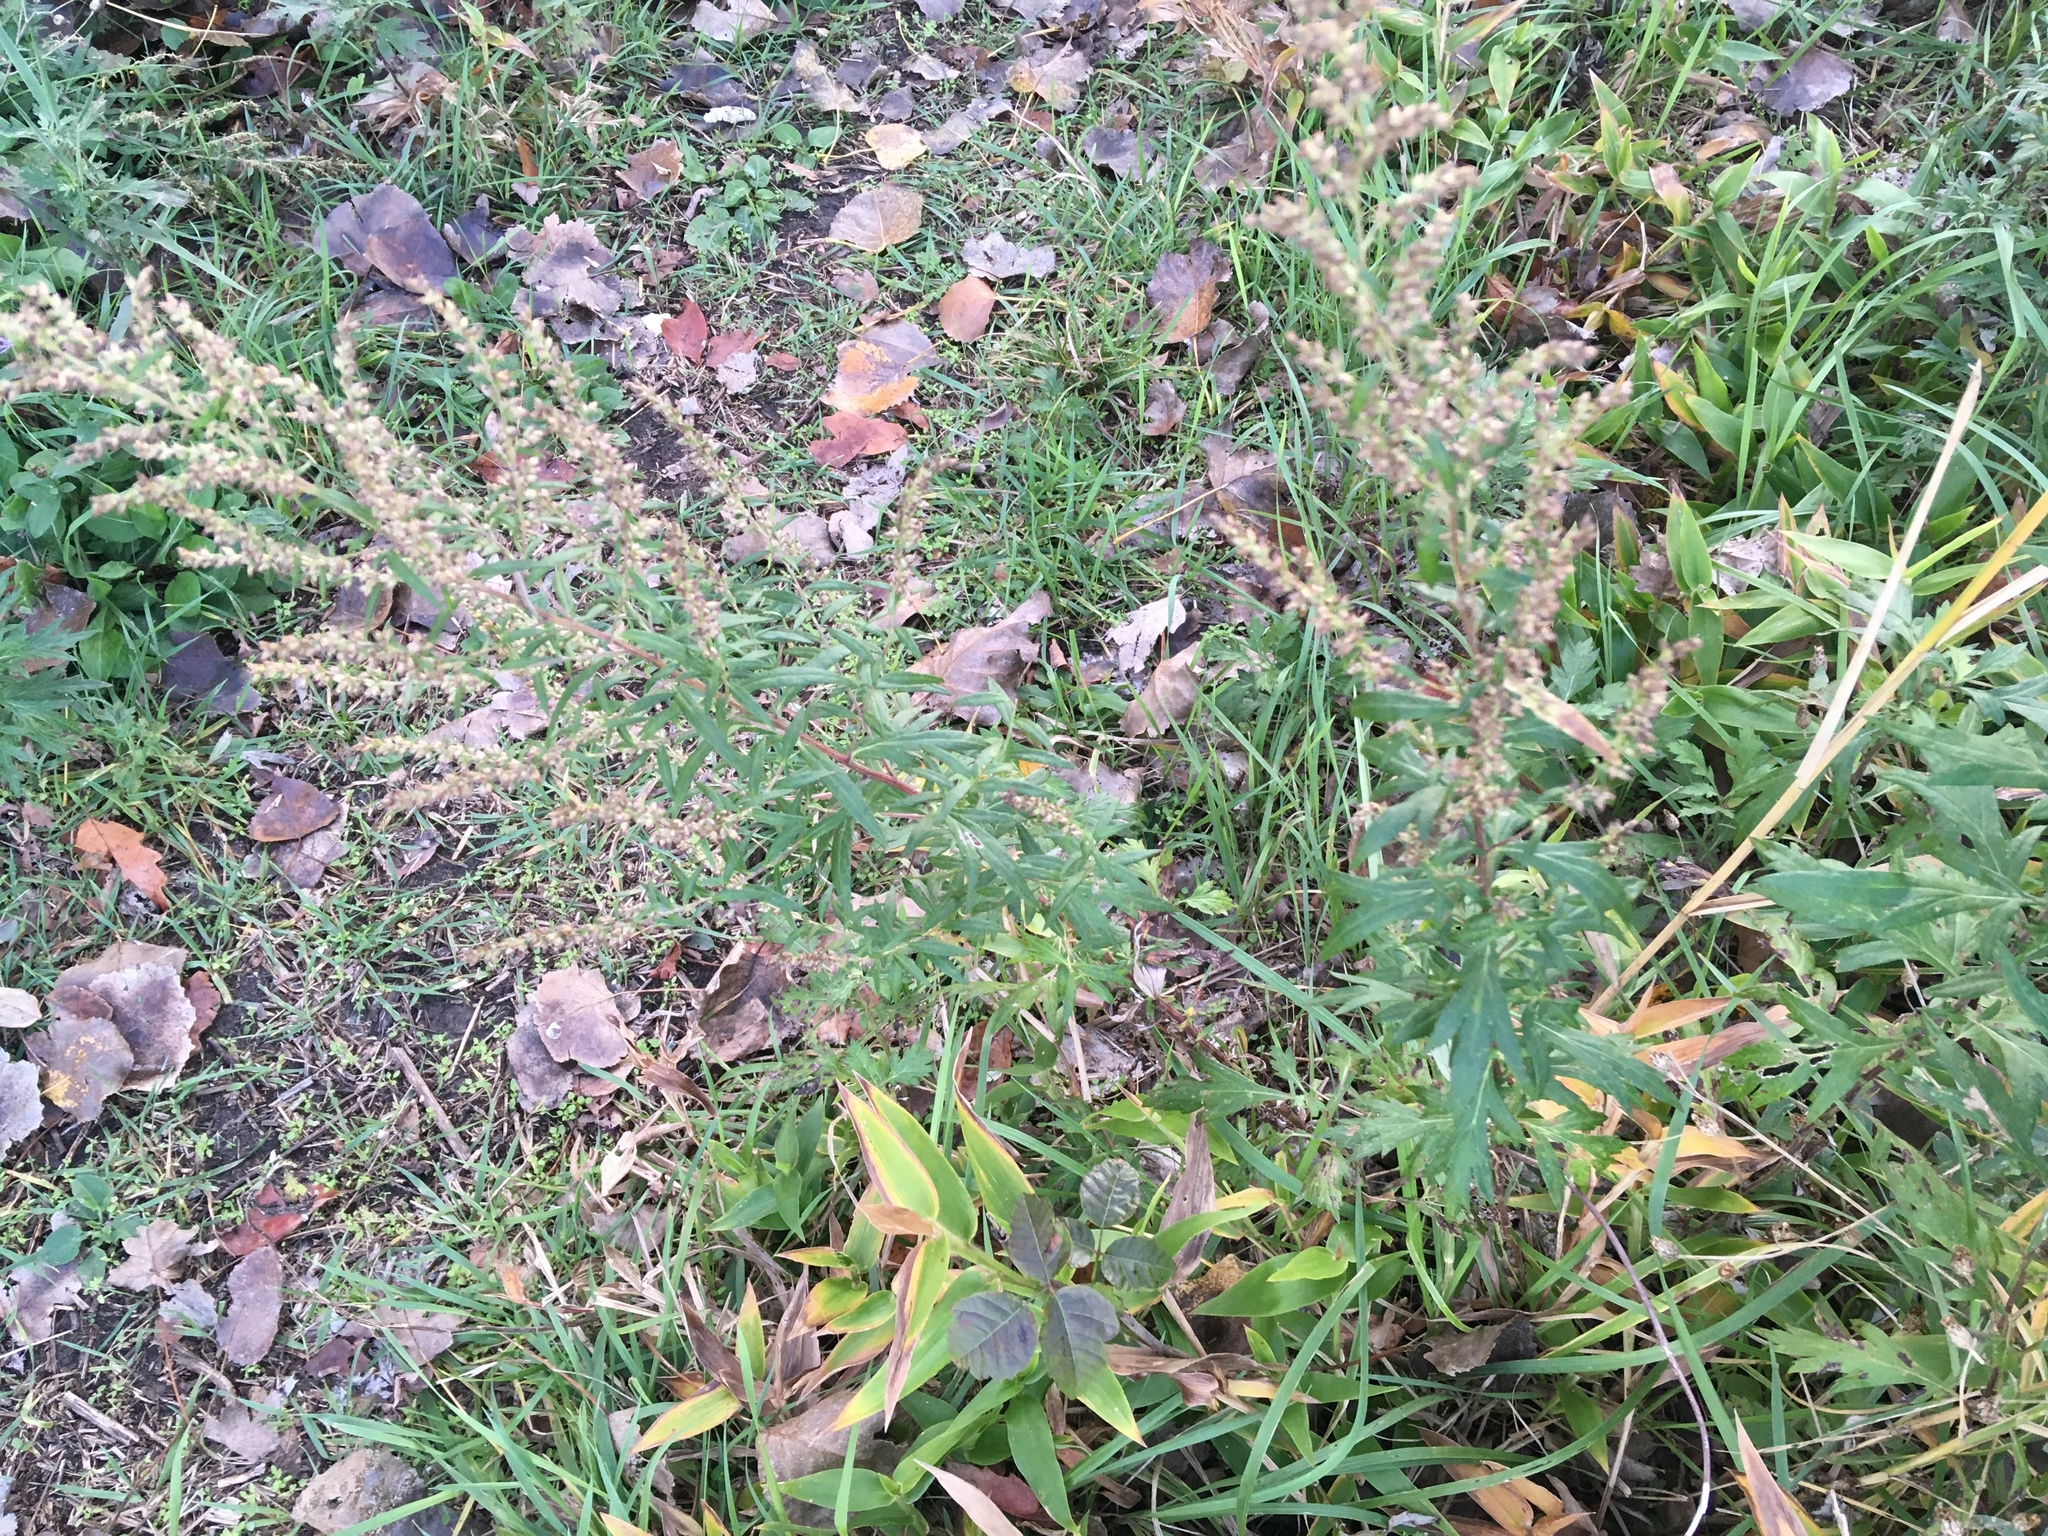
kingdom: Plantae
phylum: Tracheophyta
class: Magnoliopsida
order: Asterales
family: Asteraceae
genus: Artemisia
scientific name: Artemisia vulgaris
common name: Mugwort
